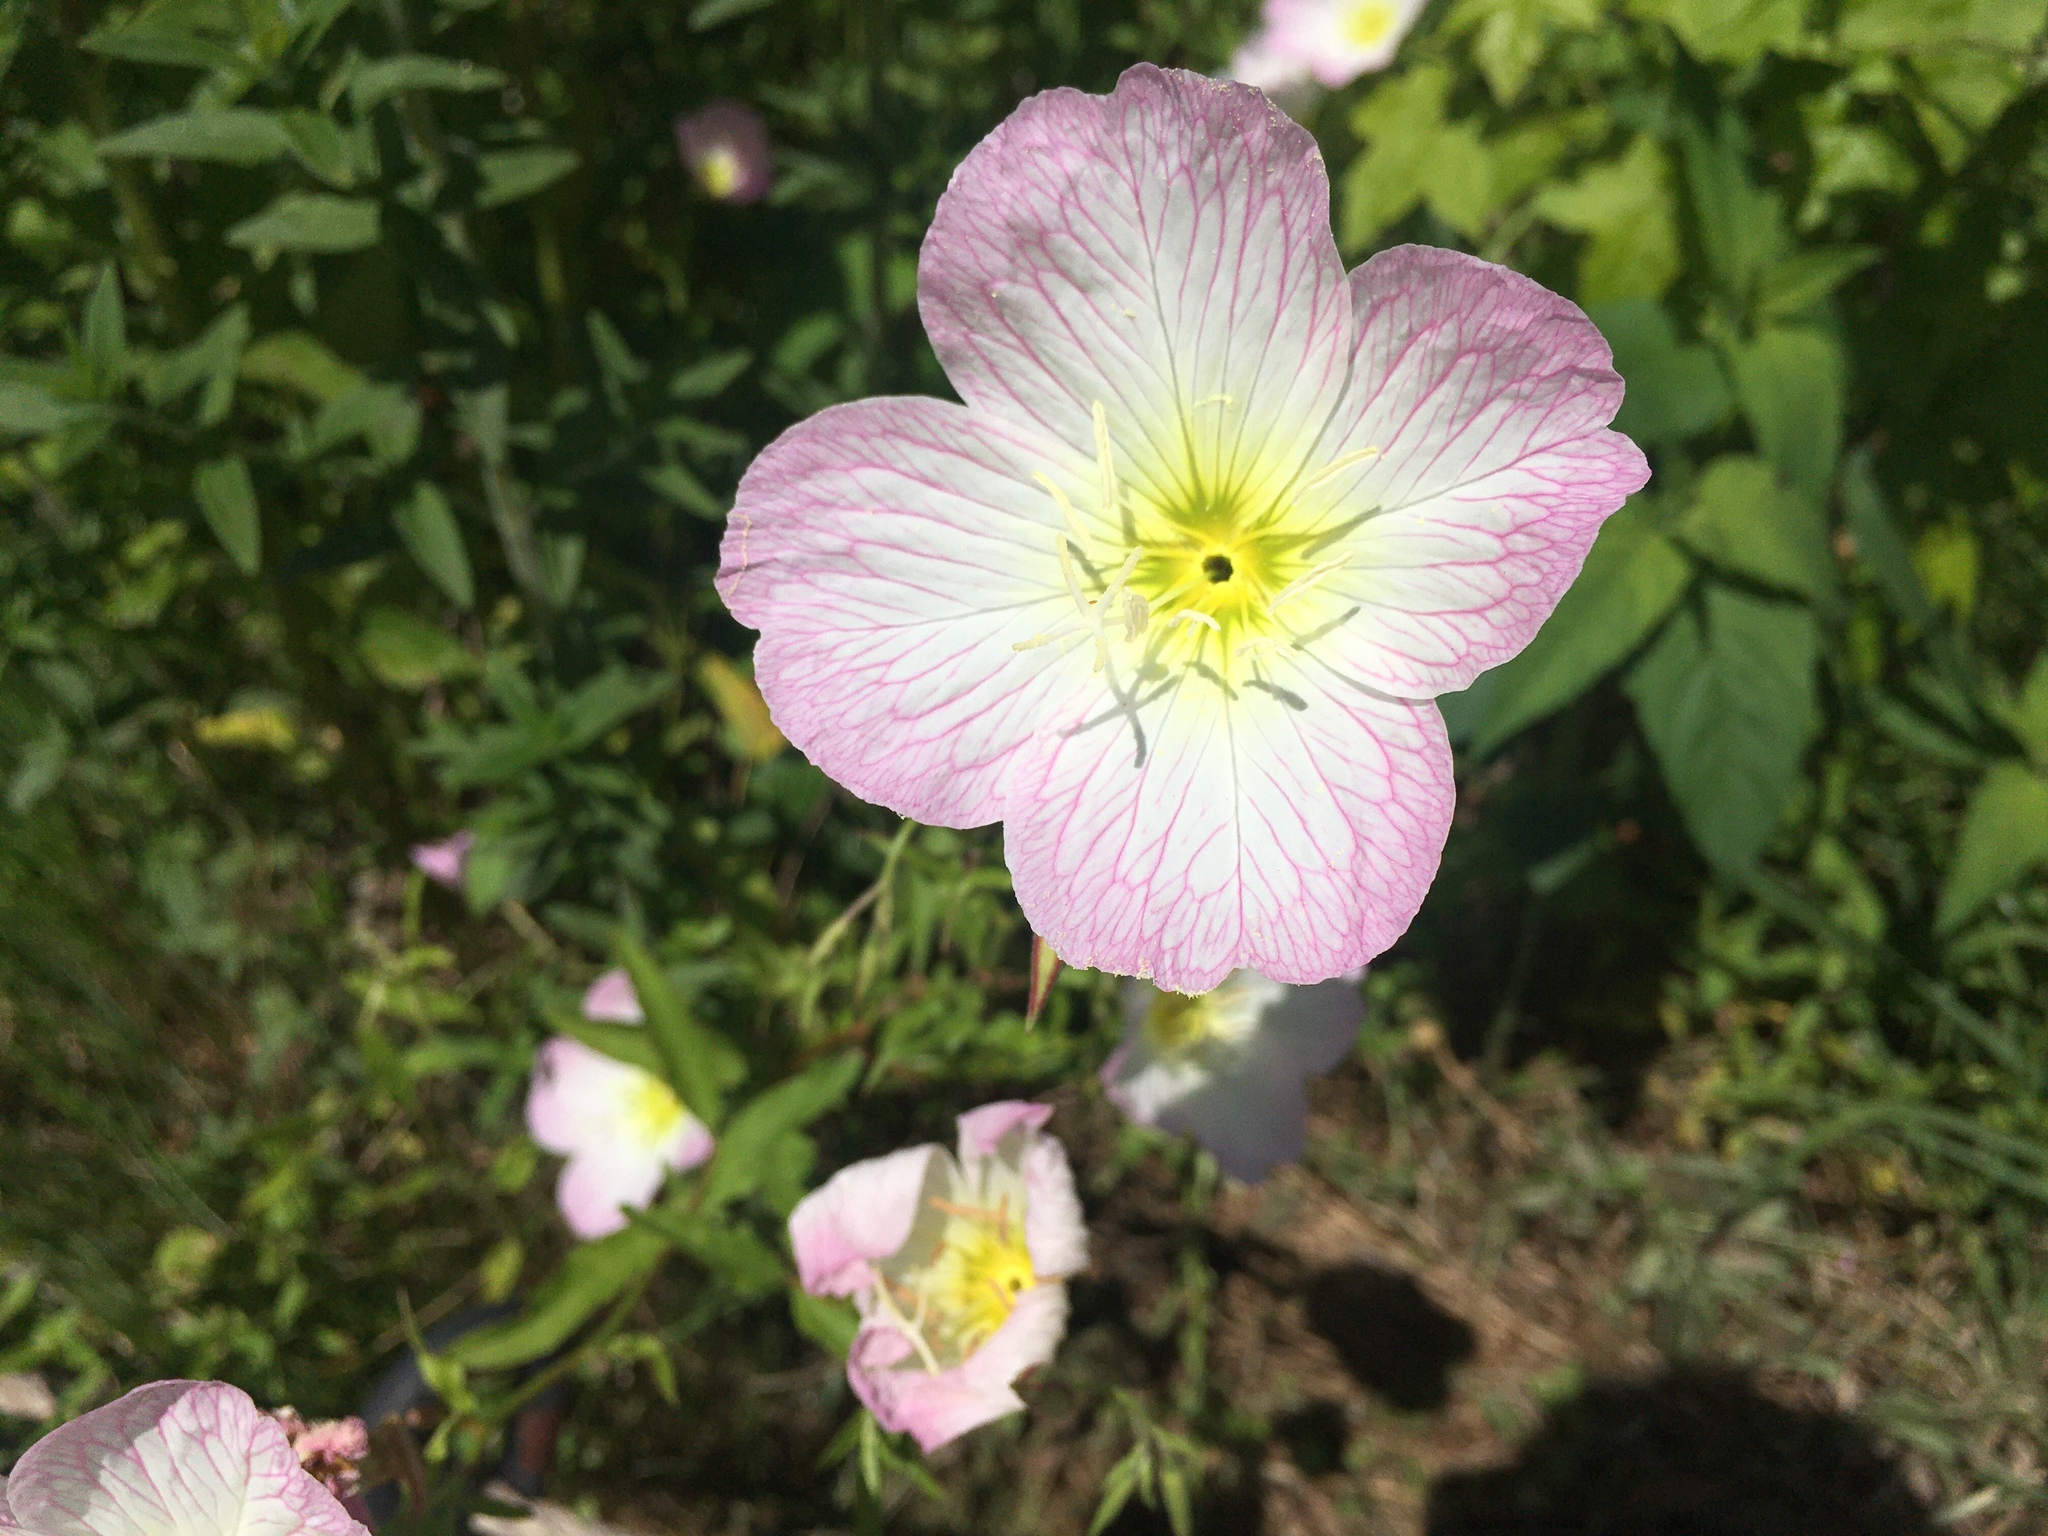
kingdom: Plantae
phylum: Tracheophyta
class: Magnoliopsida
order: Myrtales
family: Onagraceae
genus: Oenothera
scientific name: Oenothera speciosa
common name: White evening-primrose
